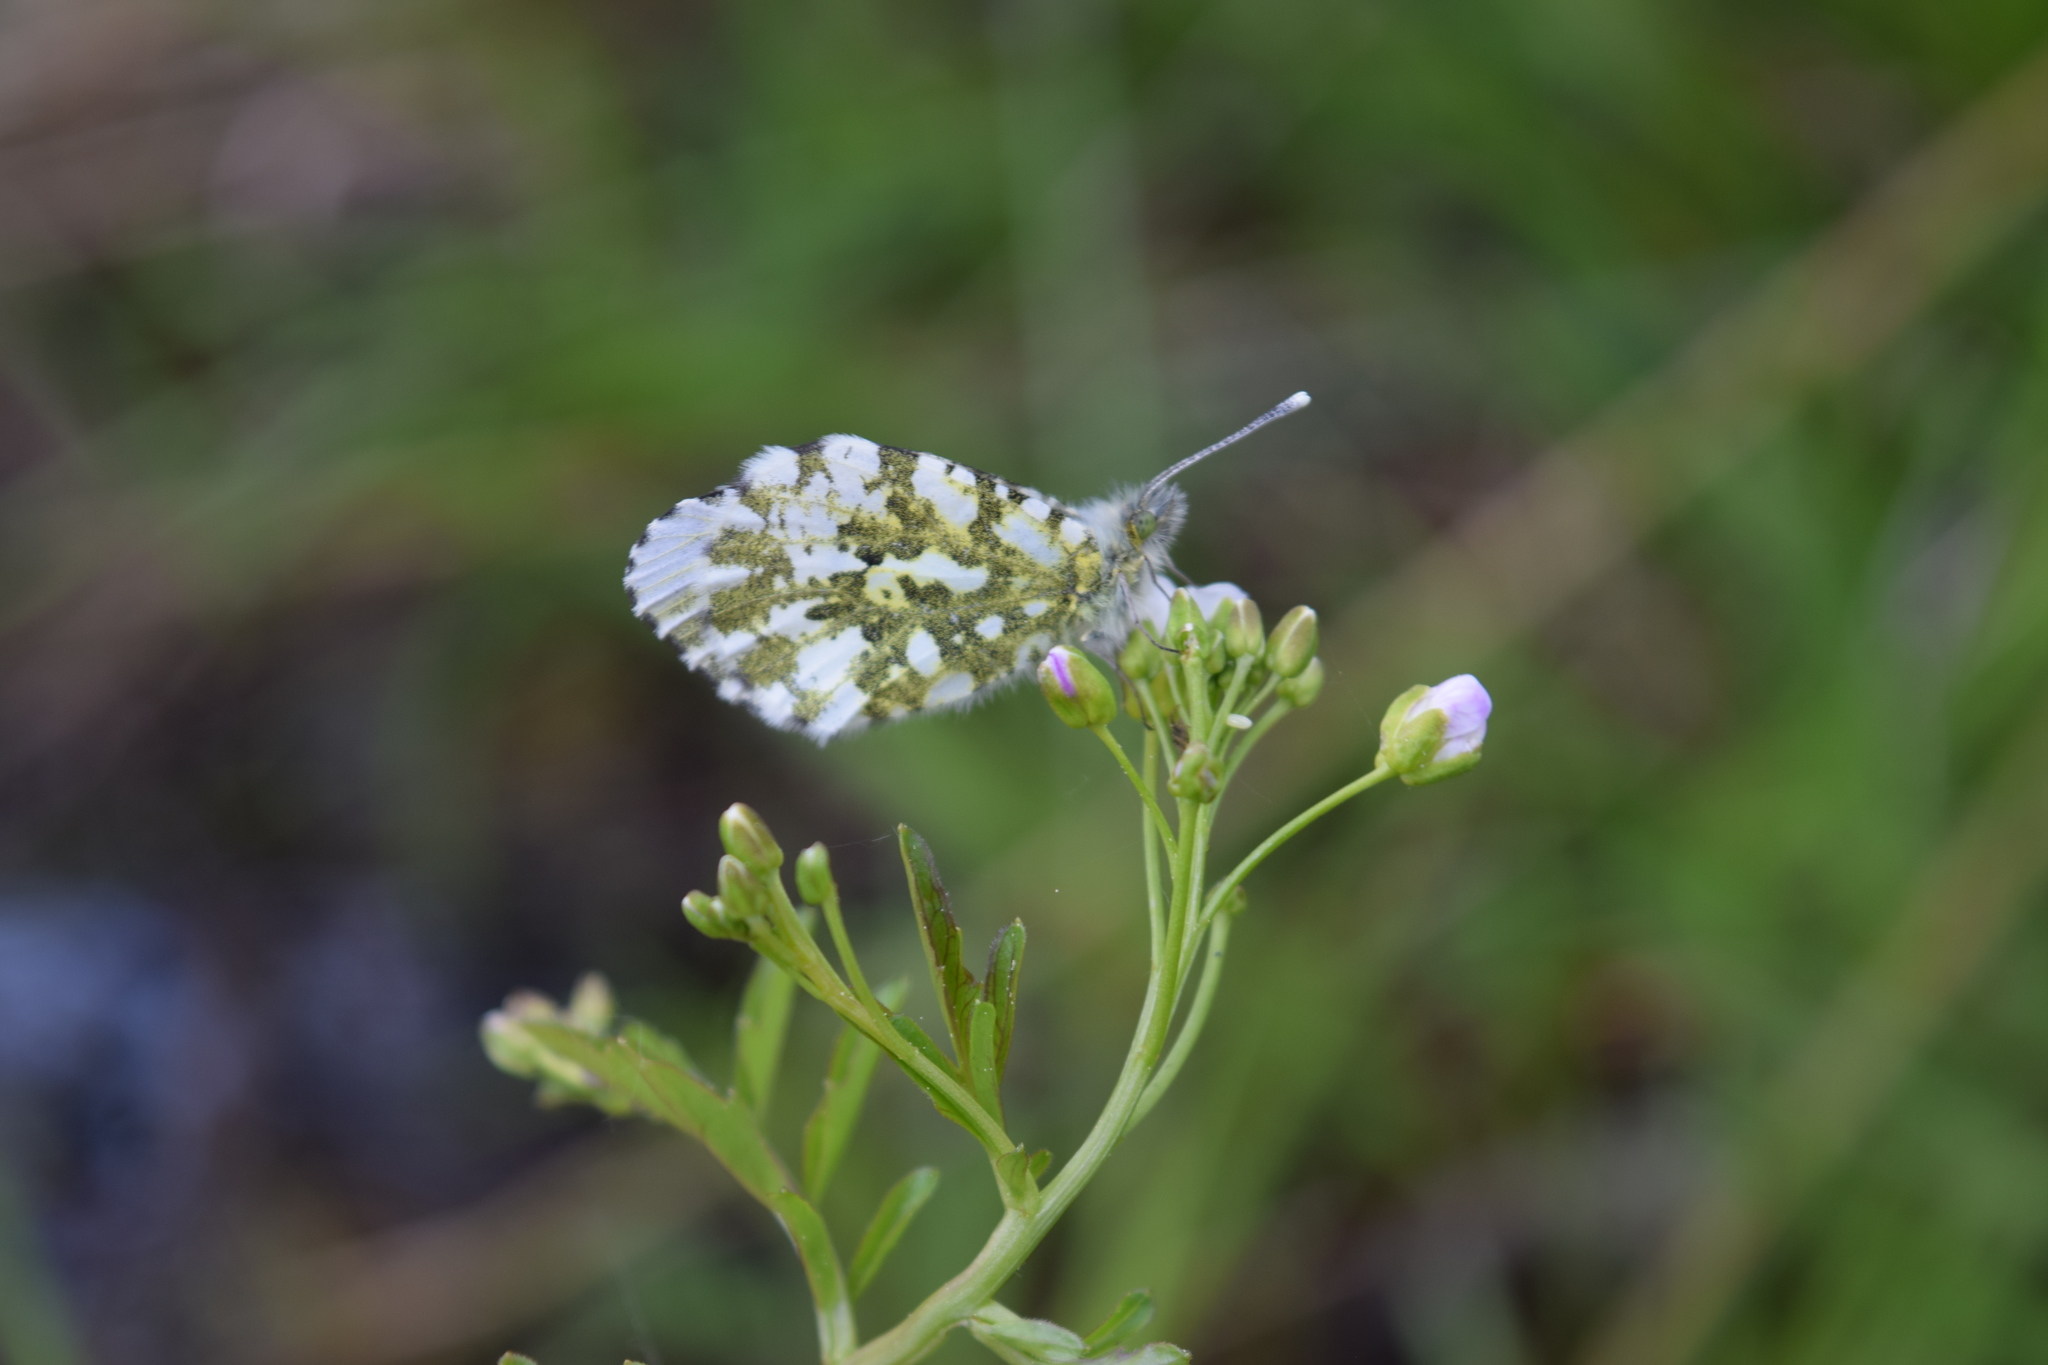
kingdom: Animalia
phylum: Arthropoda
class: Insecta
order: Lepidoptera
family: Pieridae
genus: Anthocharis
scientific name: Anthocharis cardamines
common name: Orange-tip
